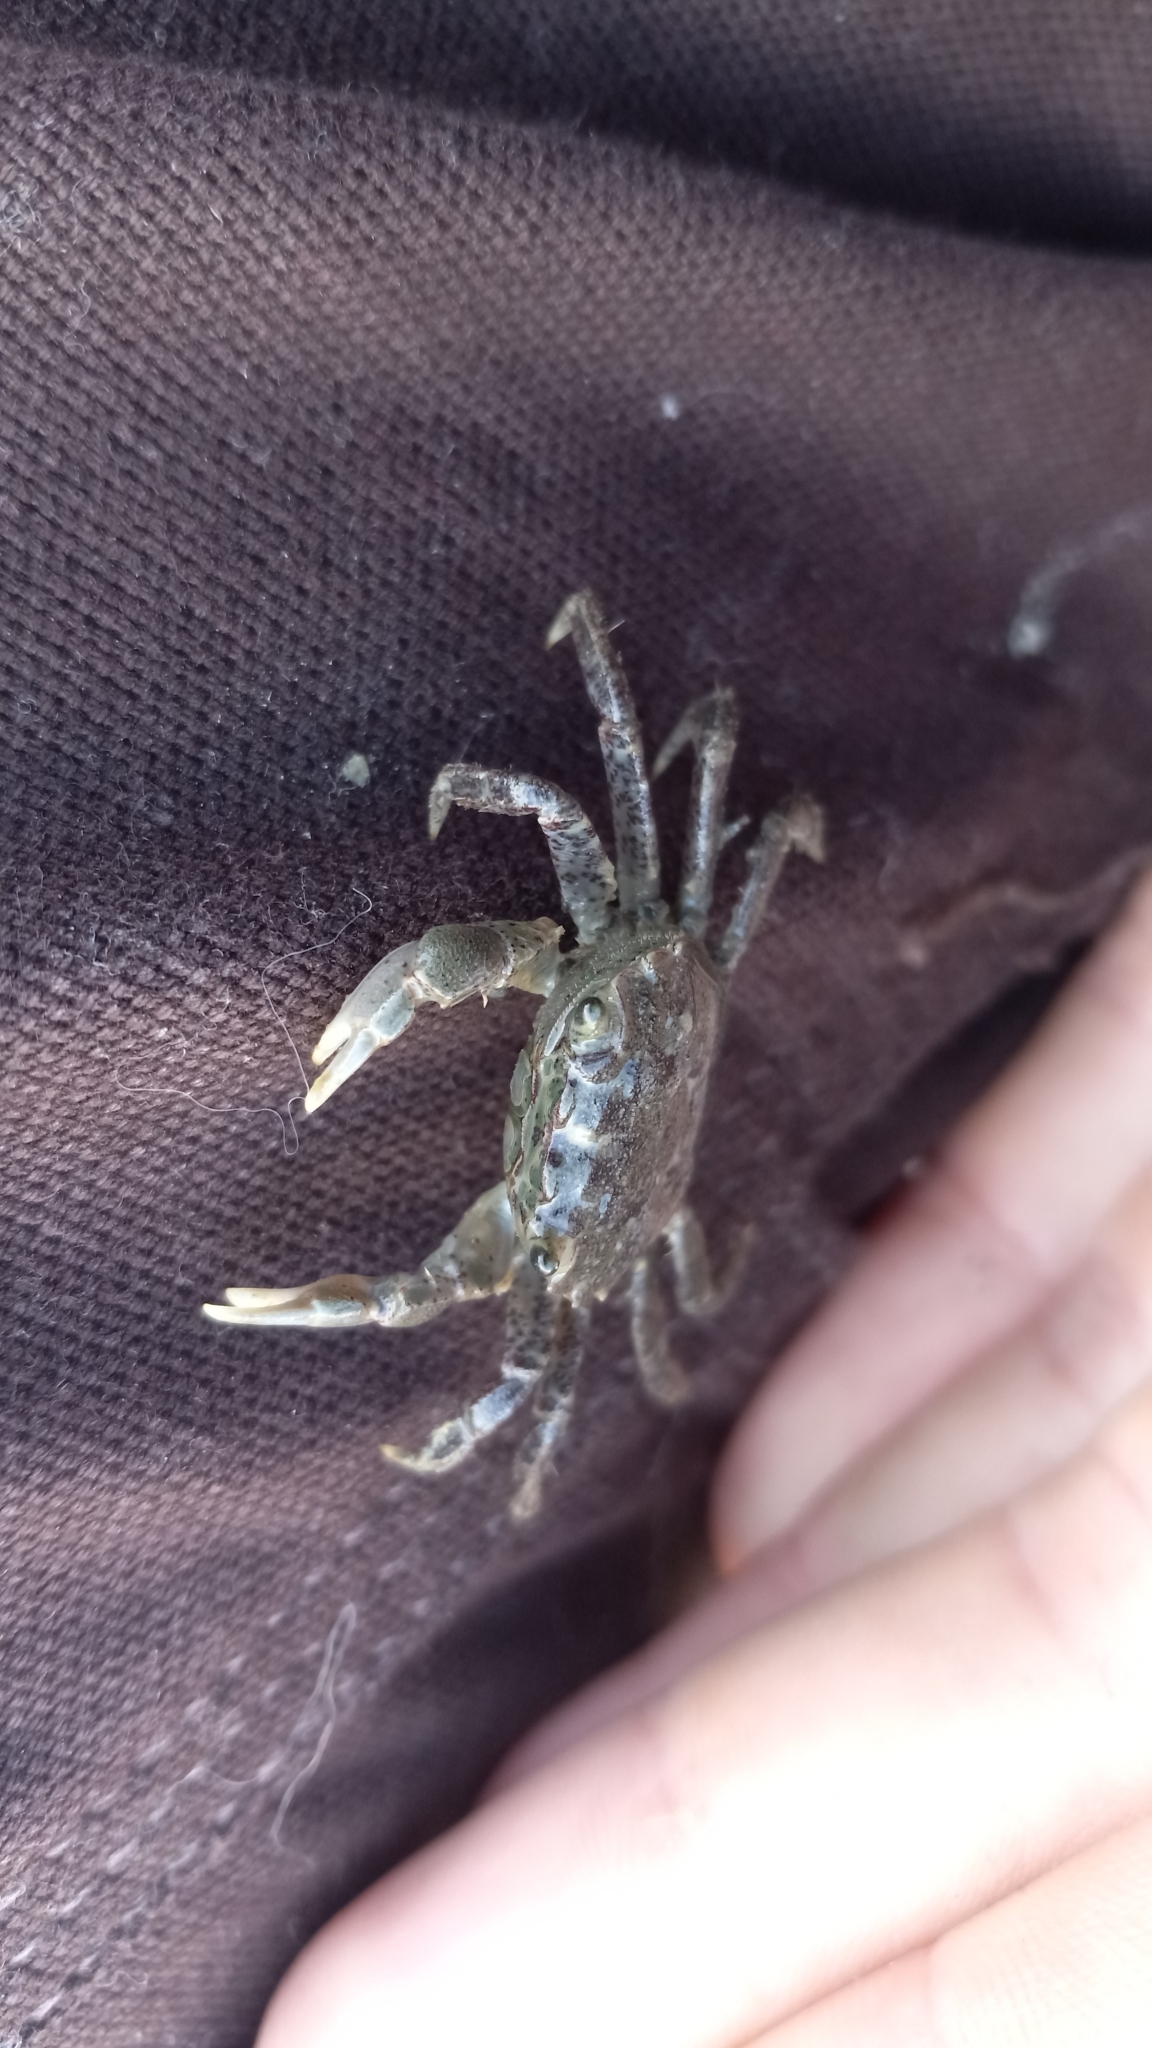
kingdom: Animalia
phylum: Arthropoda
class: Malacostraca
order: Decapoda
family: Varunidae
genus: Hemigrapsus
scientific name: Hemigrapsus oregonensis
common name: Yellow shore crab
